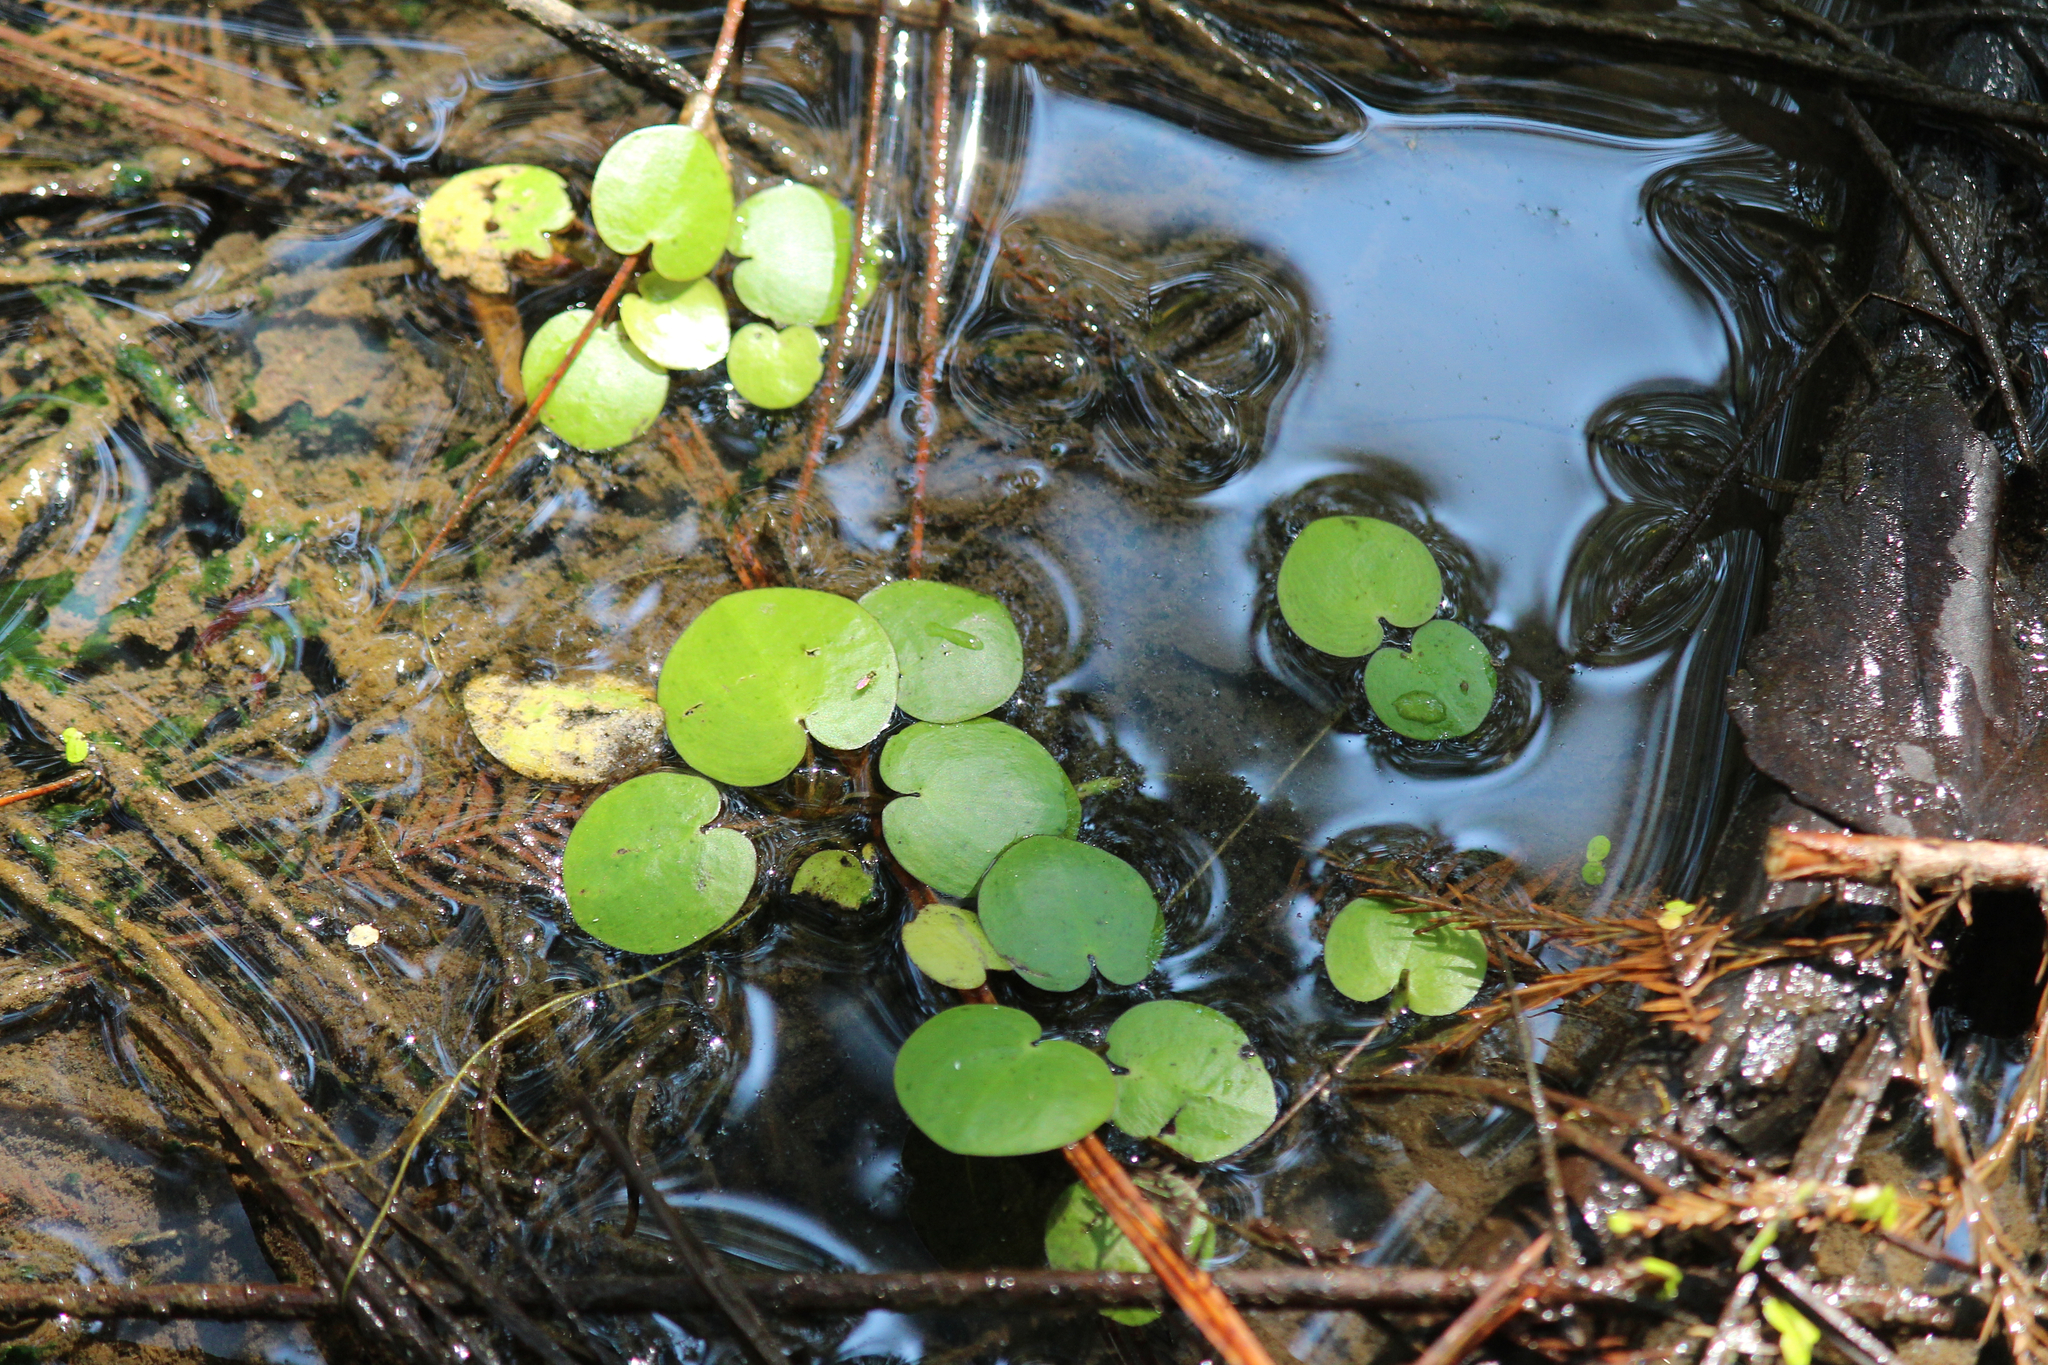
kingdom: Plantae
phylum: Tracheophyta
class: Liliopsida
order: Alismatales
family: Hydrocharitaceae
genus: Hydrocharis
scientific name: Hydrocharis spongia
